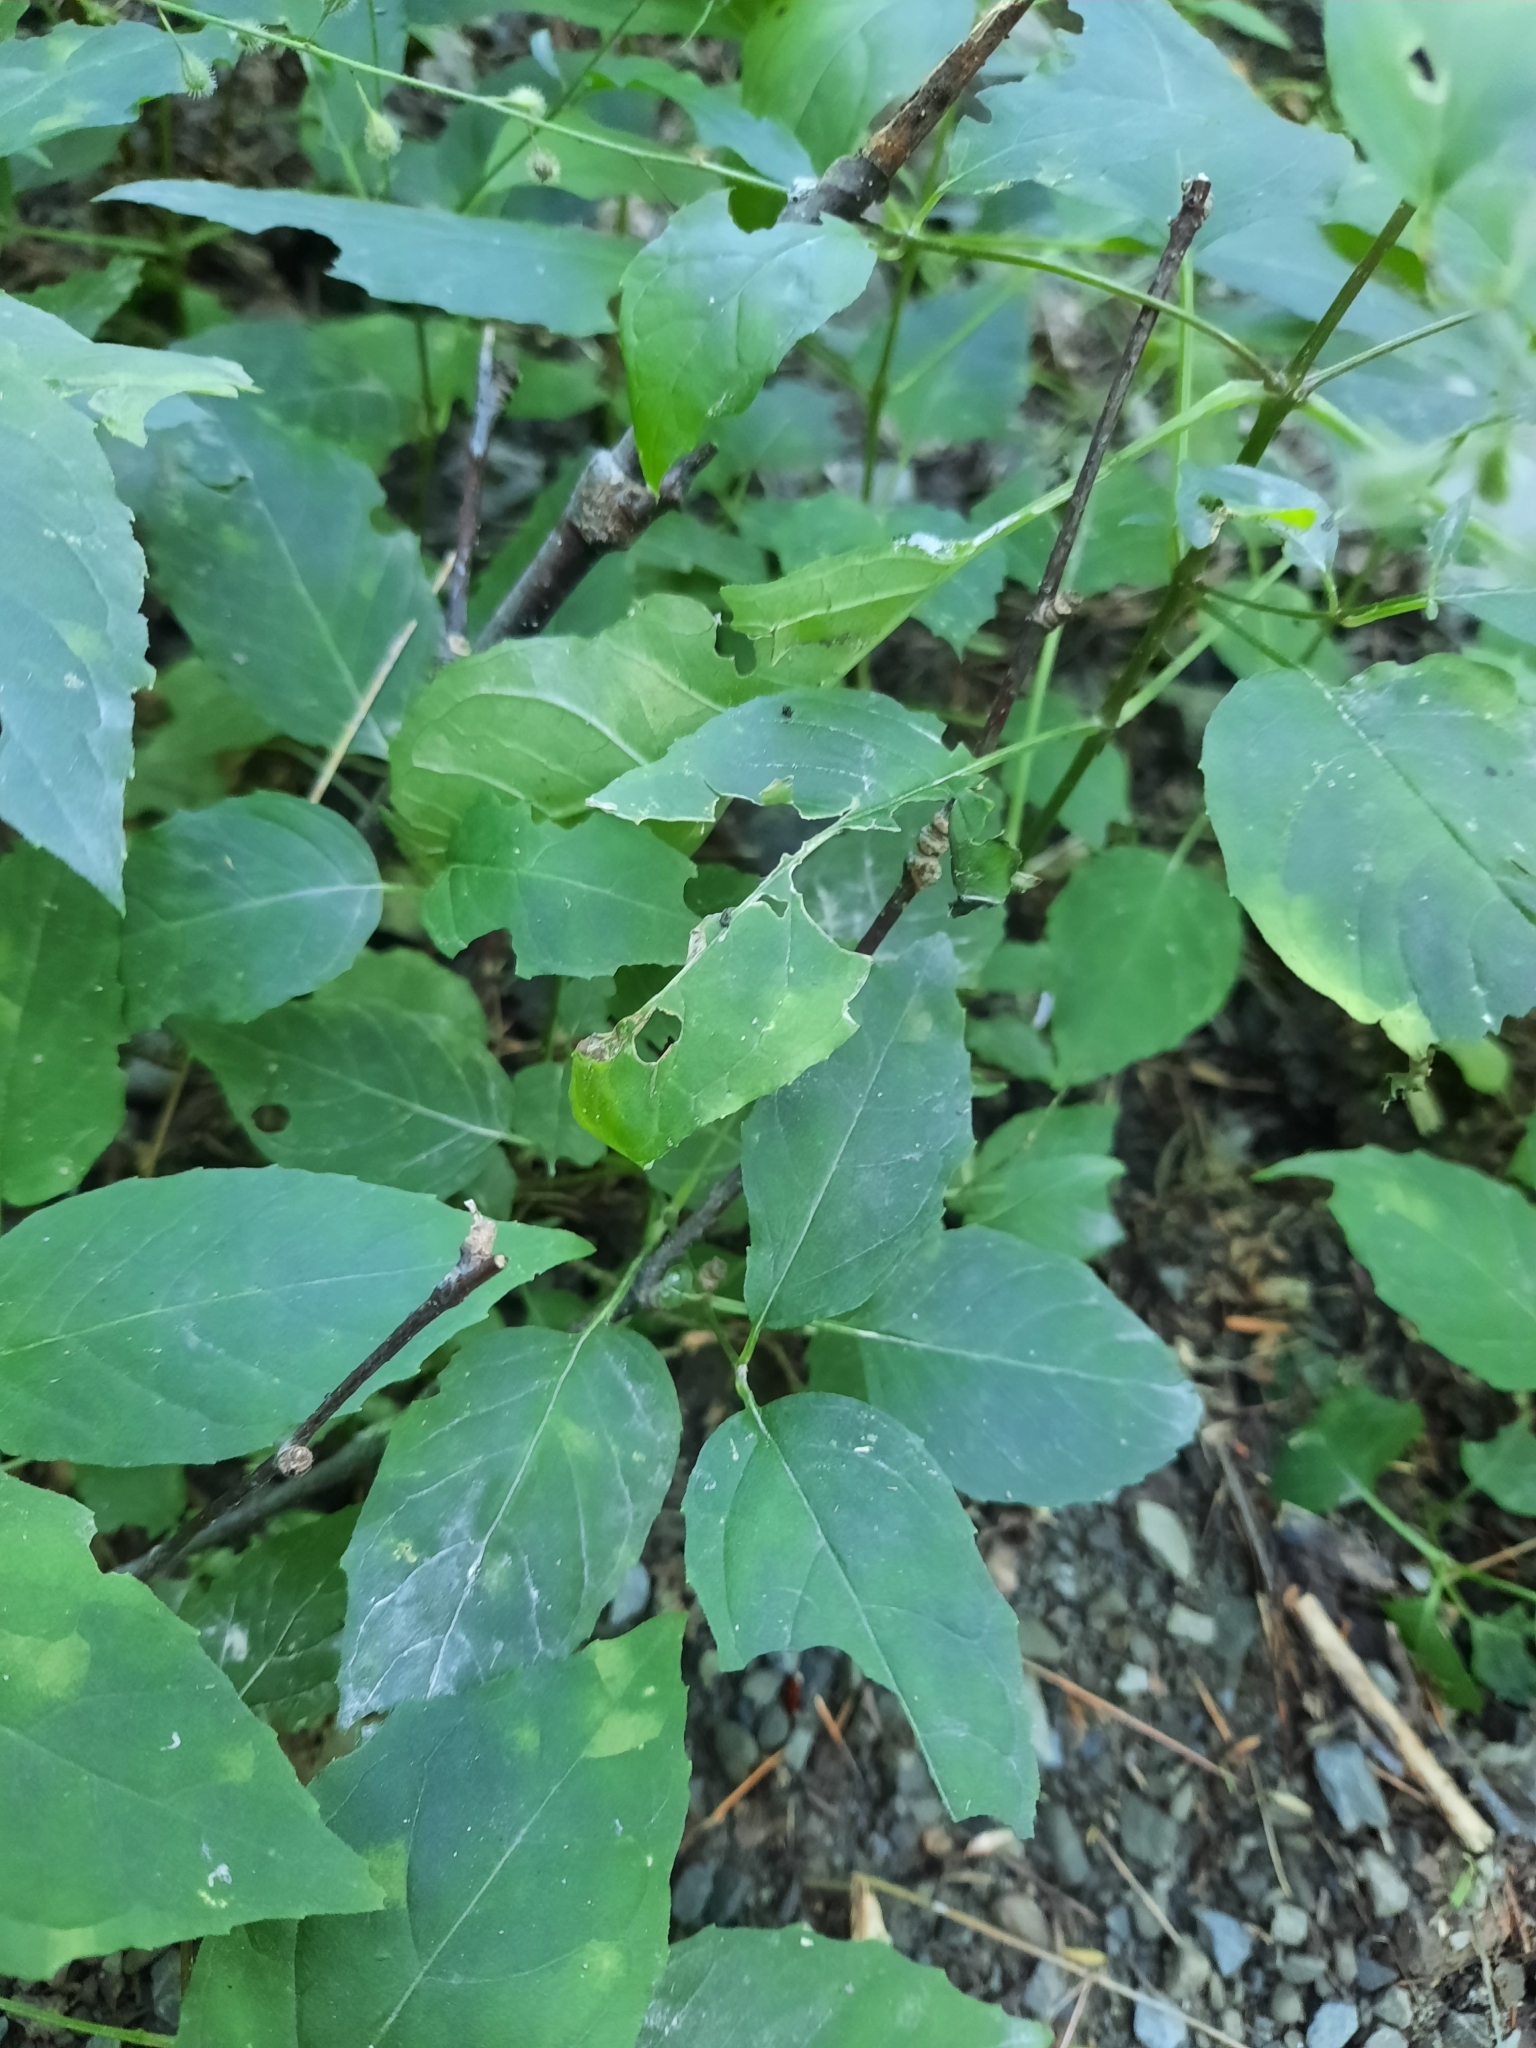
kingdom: Plantae
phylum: Tracheophyta
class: Magnoliopsida
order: Myrtales
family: Onagraceae
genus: Circaea
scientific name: Circaea canadensis
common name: Broad-leaved enchanter's nightshade
